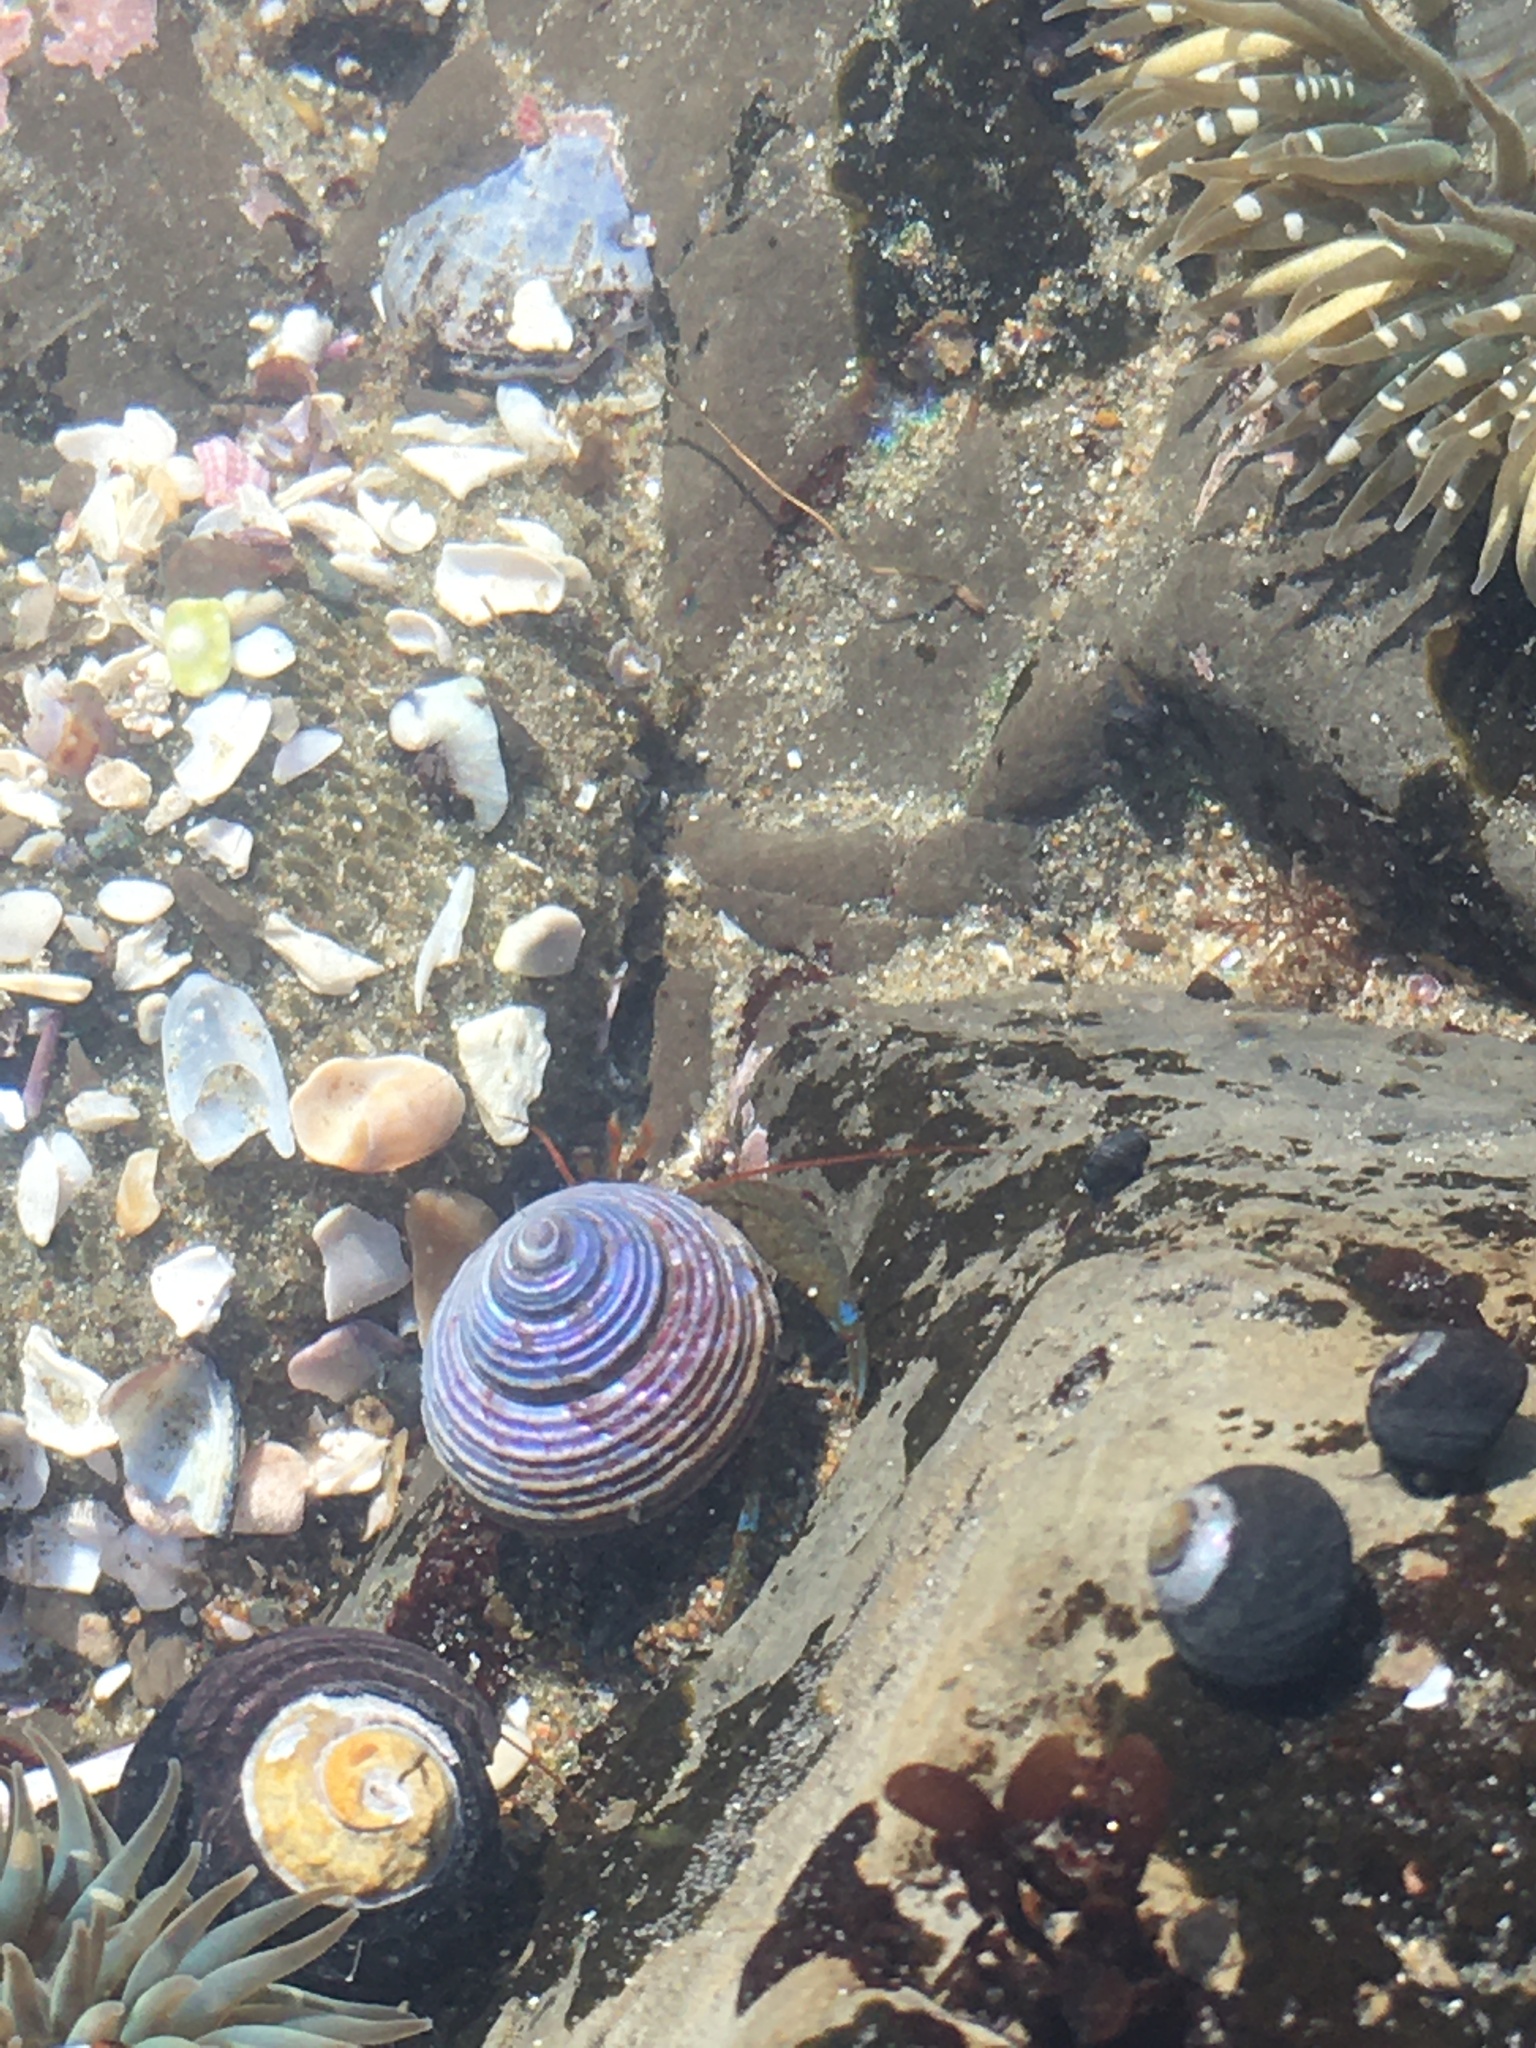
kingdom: Animalia
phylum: Arthropoda
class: Malacostraca
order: Decapoda
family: Paguridae
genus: Pagurus
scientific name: Pagurus samuelis
